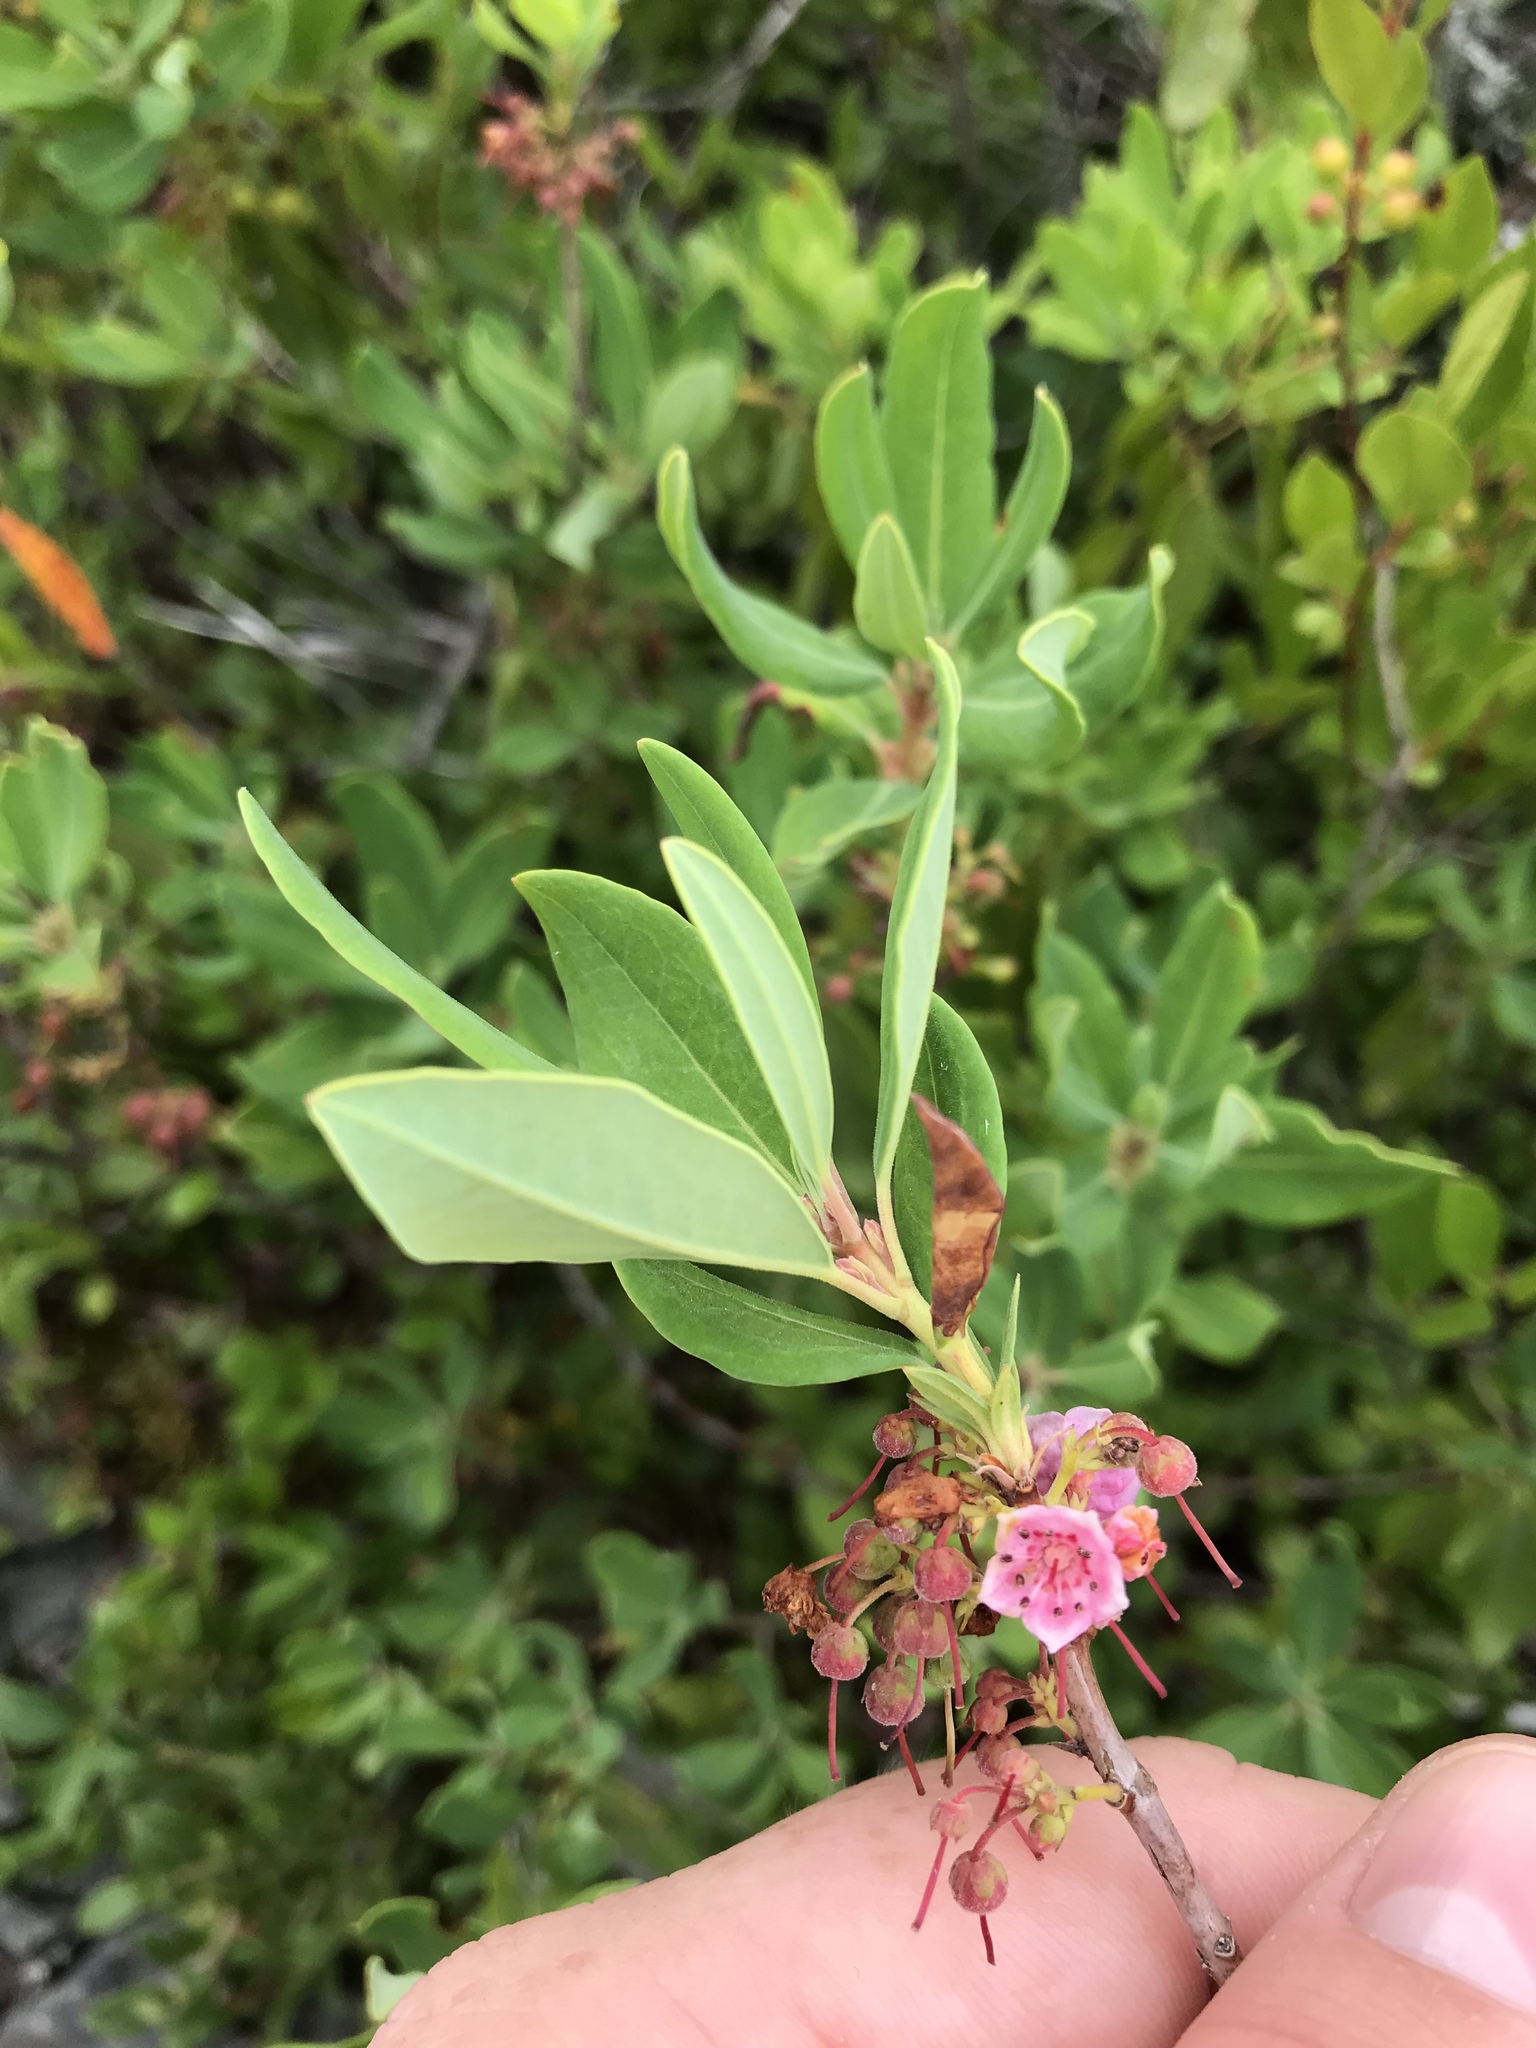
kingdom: Plantae
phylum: Tracheophyta
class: Magnoliopsida
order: Ericales
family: Ericaceae
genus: Kalmia
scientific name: Kalmia angustifolia
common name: Sheep-laurel
